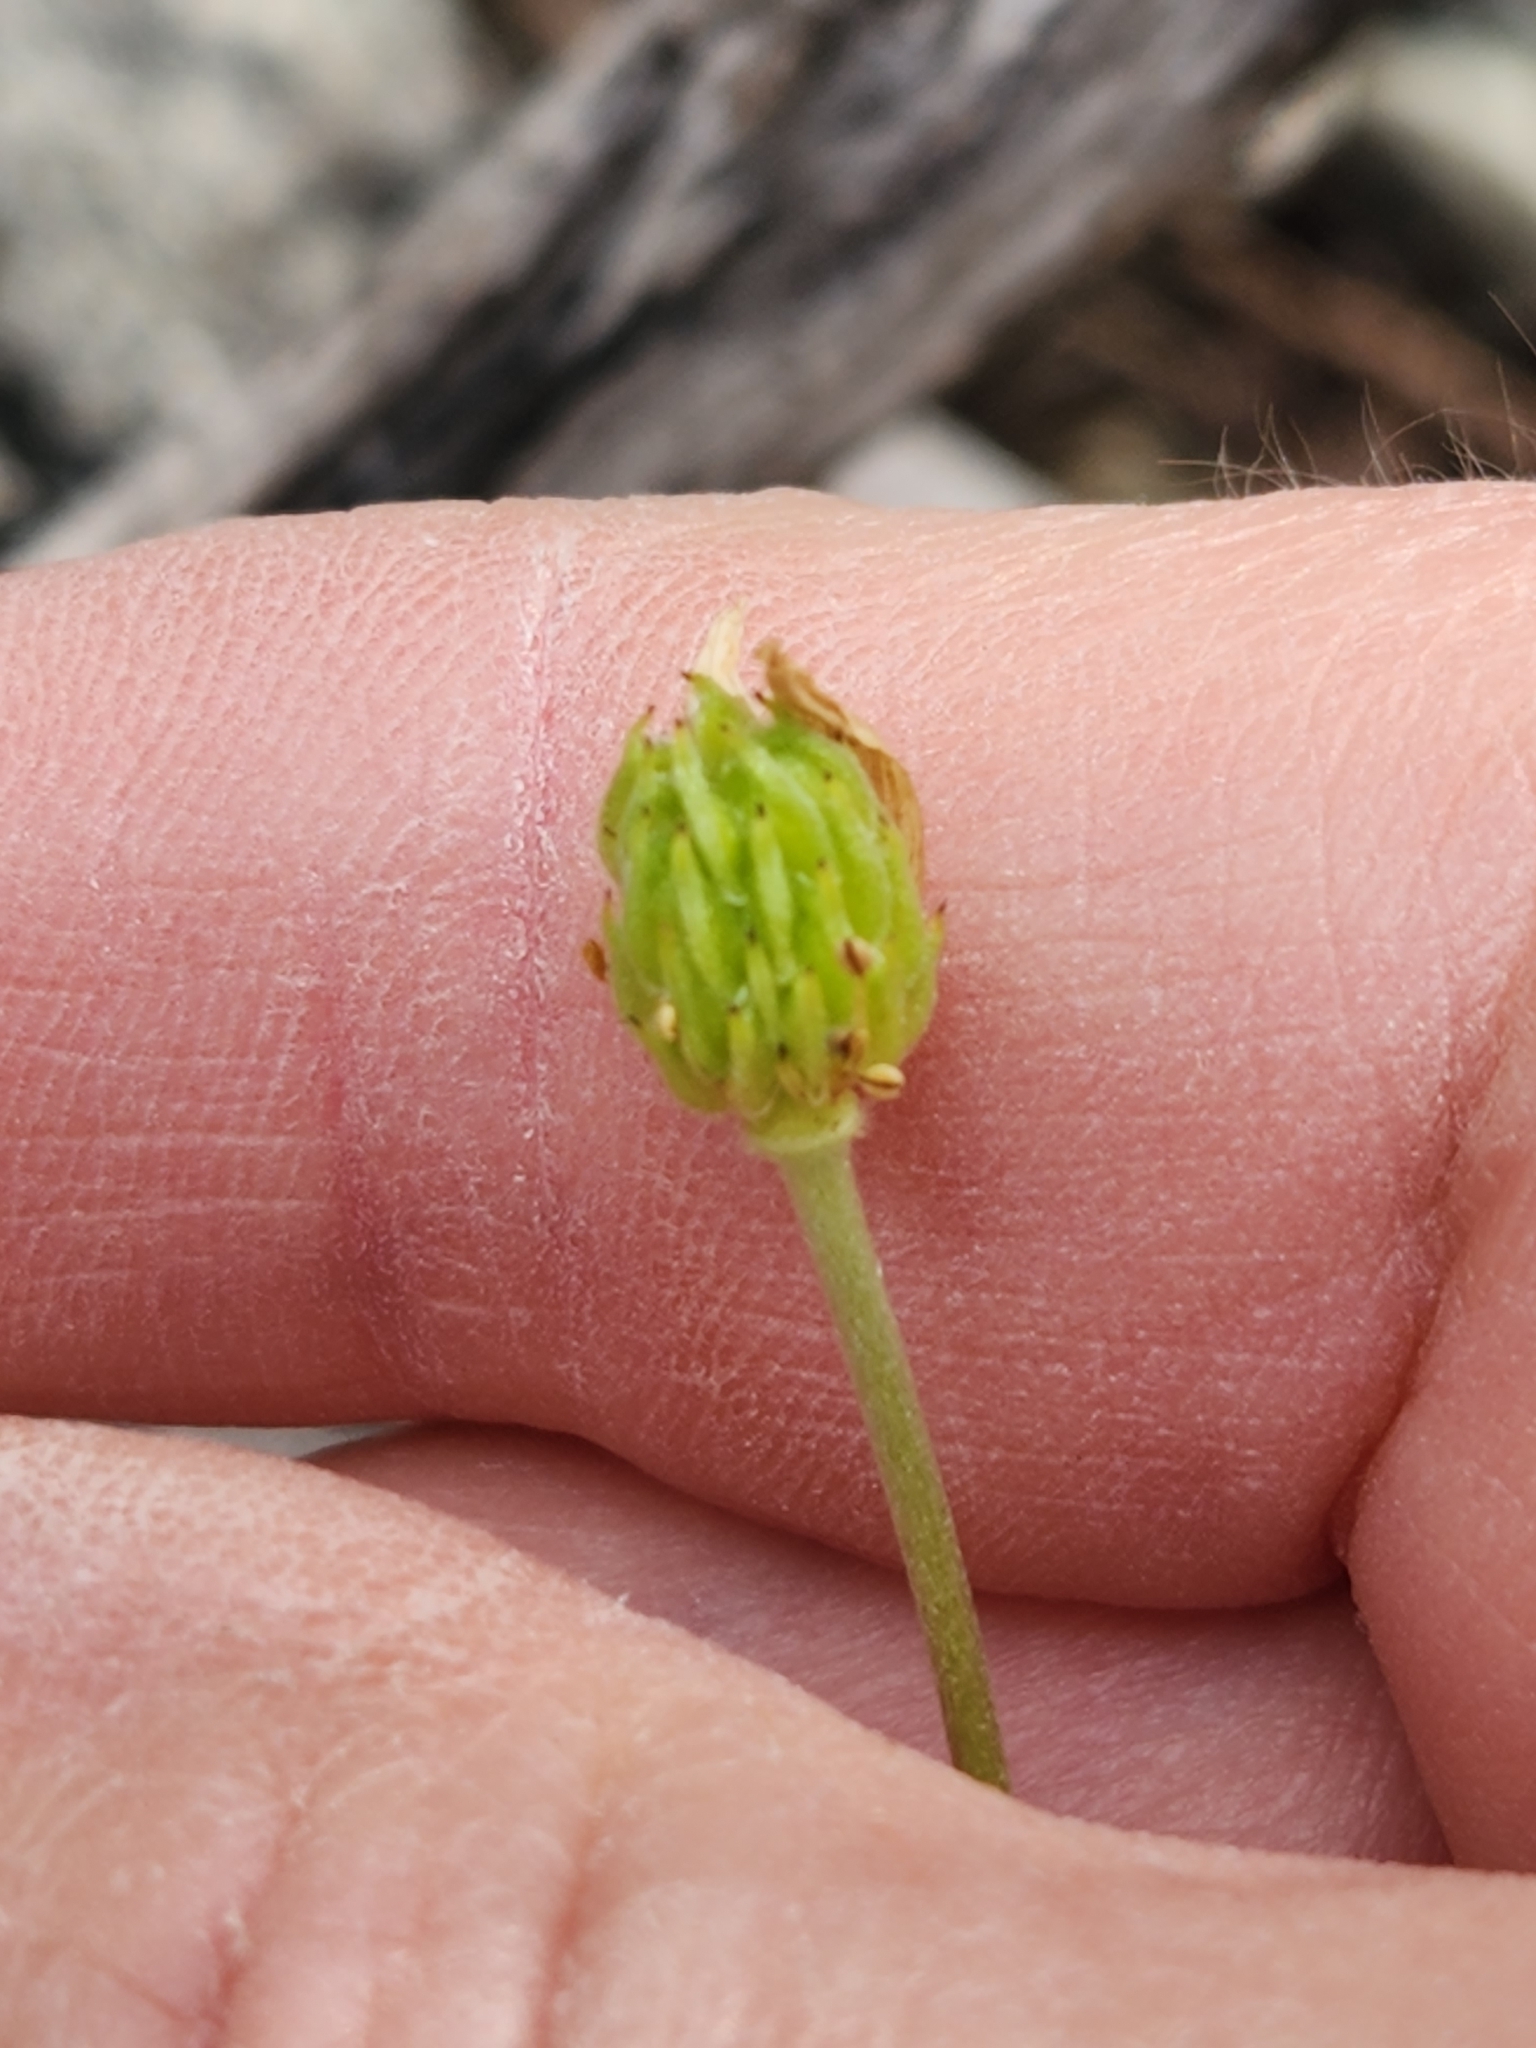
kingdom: Plantae
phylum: Tracheophyta
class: Magnoliopsida
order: Ranunculales
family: Ranunculaceae
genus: Anemone
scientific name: Anemone edwardsiana
